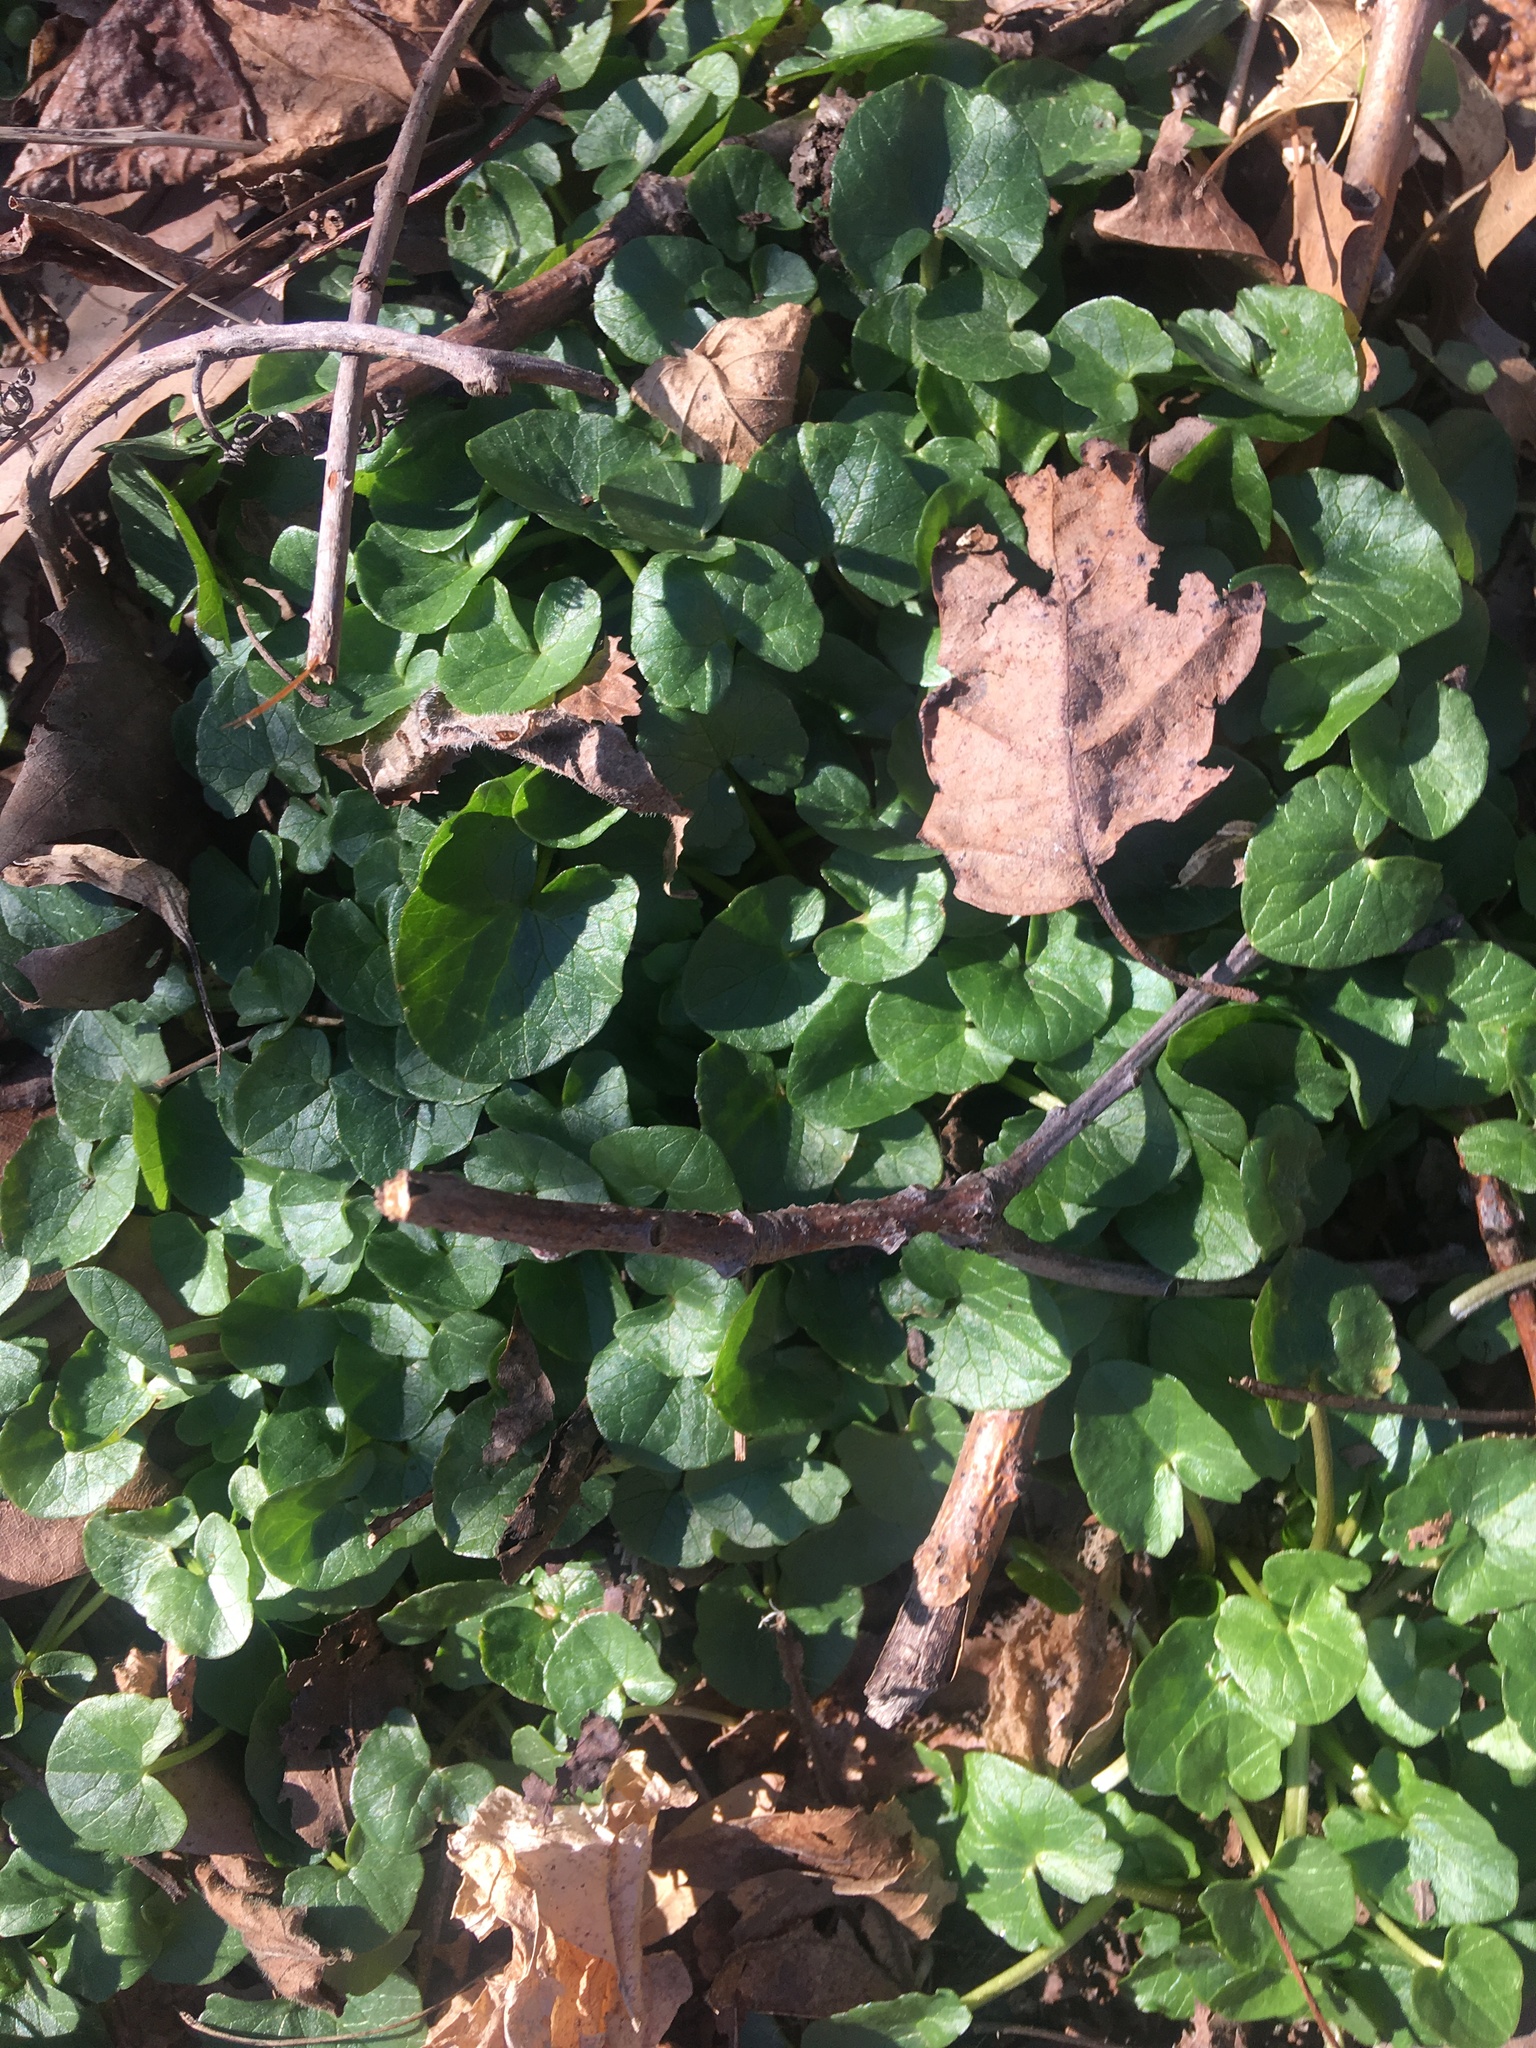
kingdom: Plantae
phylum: Tracheophyta
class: Magnoliopsida
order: Ranunculales
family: Ranunculaceae
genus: Ficaria
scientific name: Ficaria verna
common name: Lesser celandine
